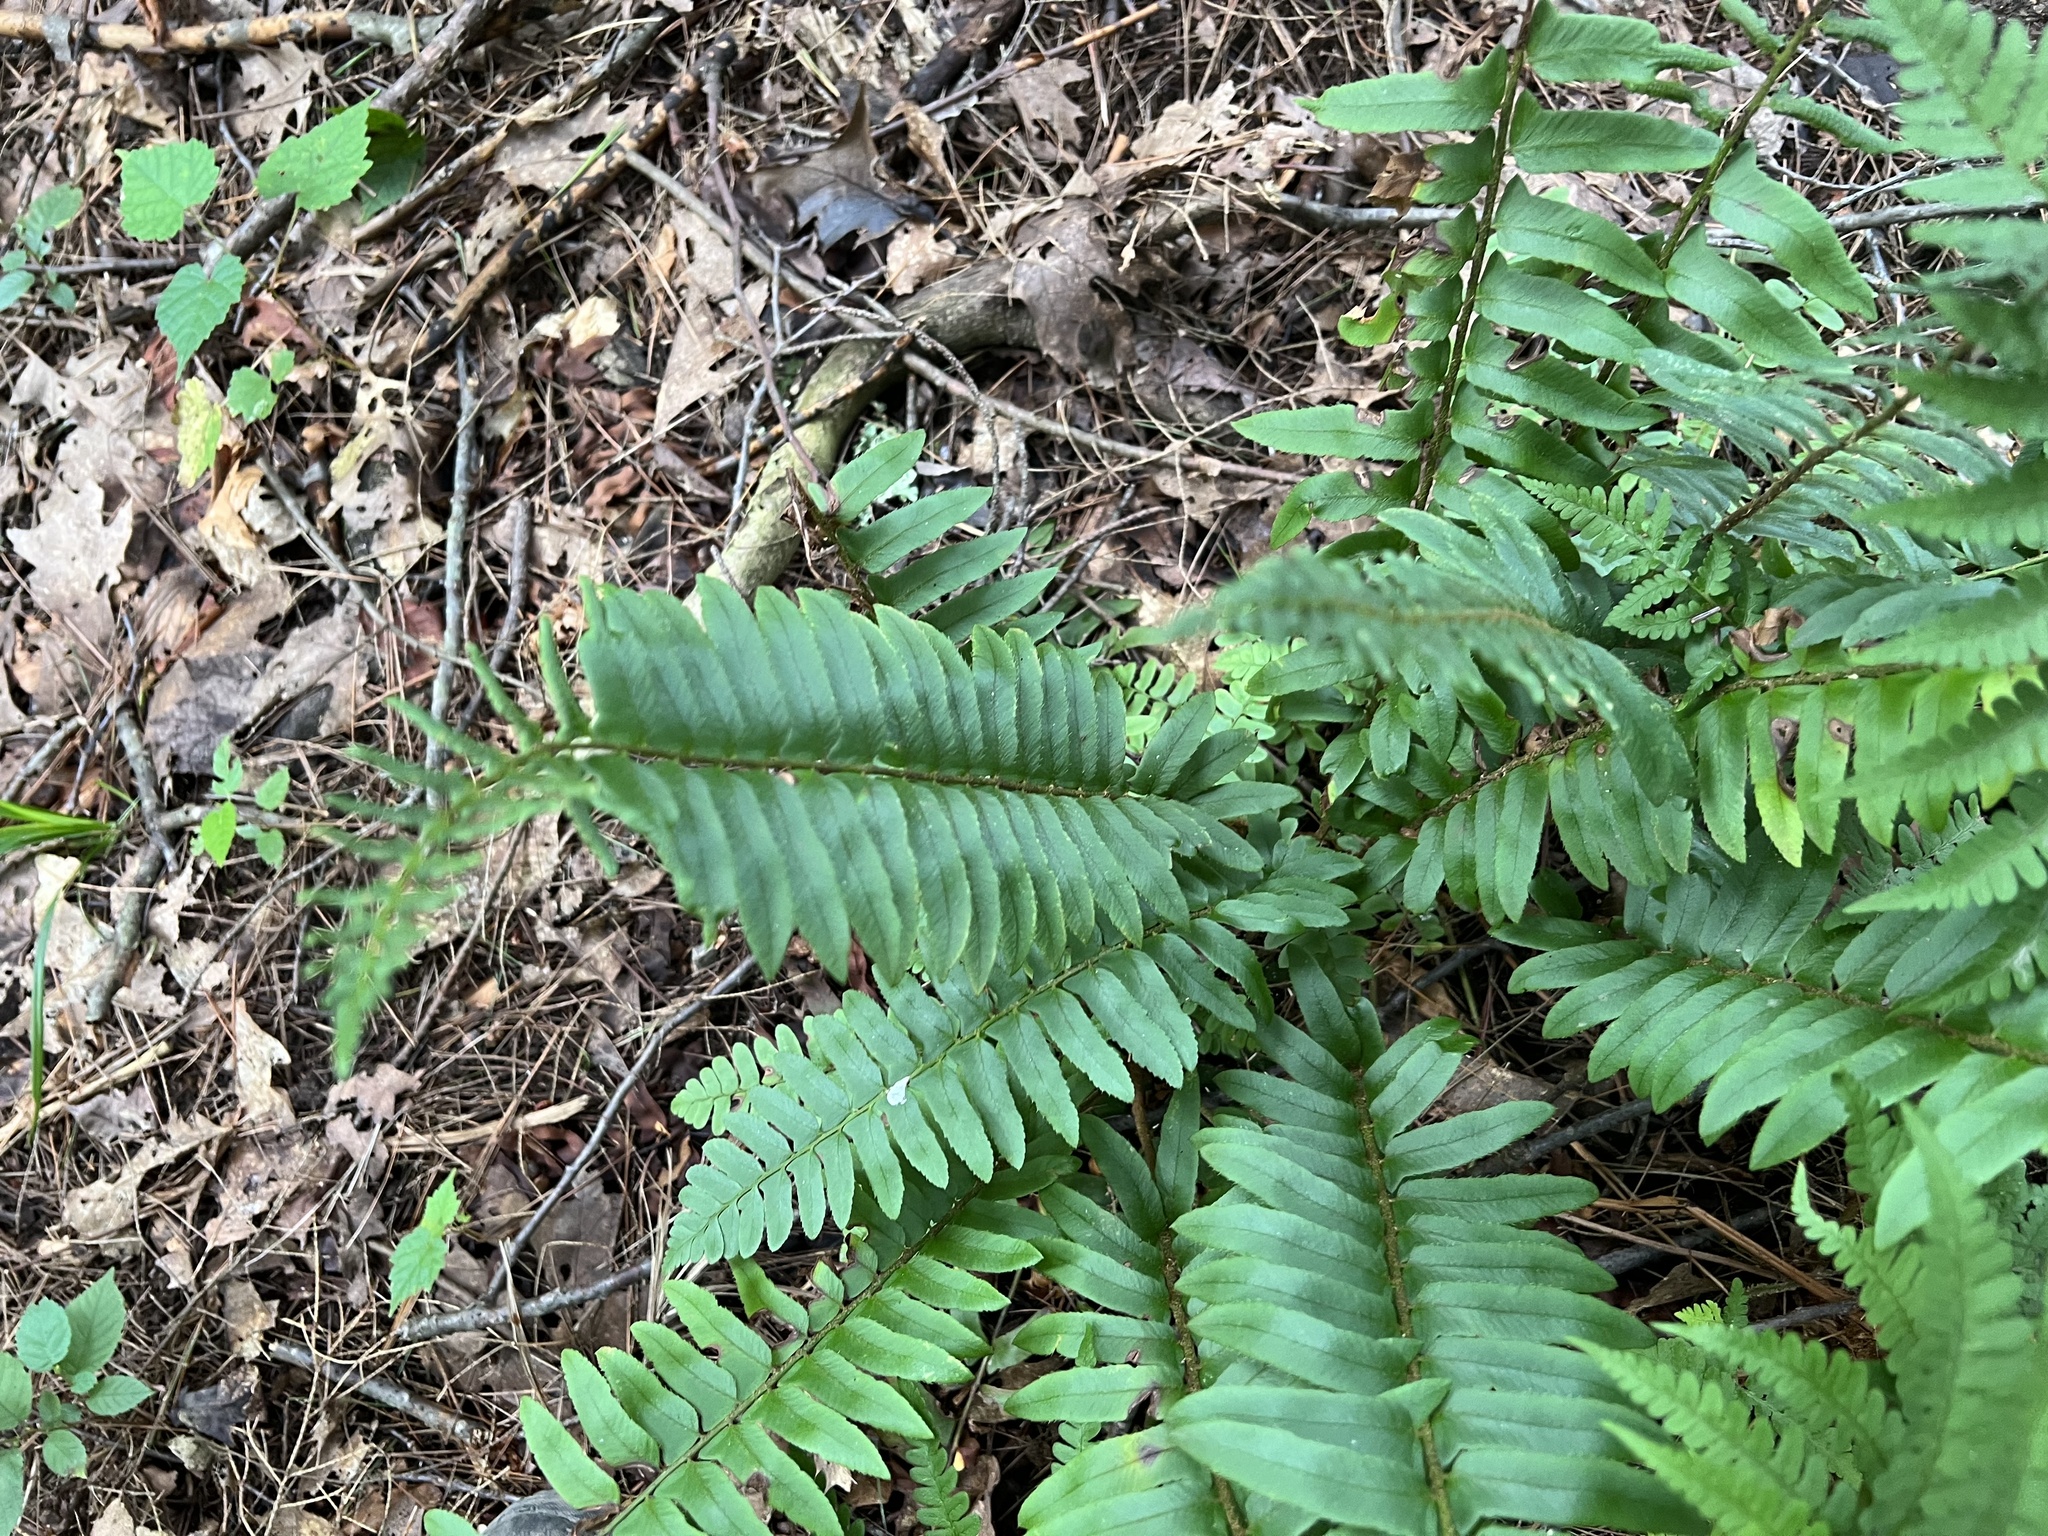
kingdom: Plantae
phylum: Tracheophyta
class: Polypodiopsida
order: Polypodiales
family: Dryopteridaceae
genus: Polystichum
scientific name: Polystichum acrostichoides
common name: Christmas fern
